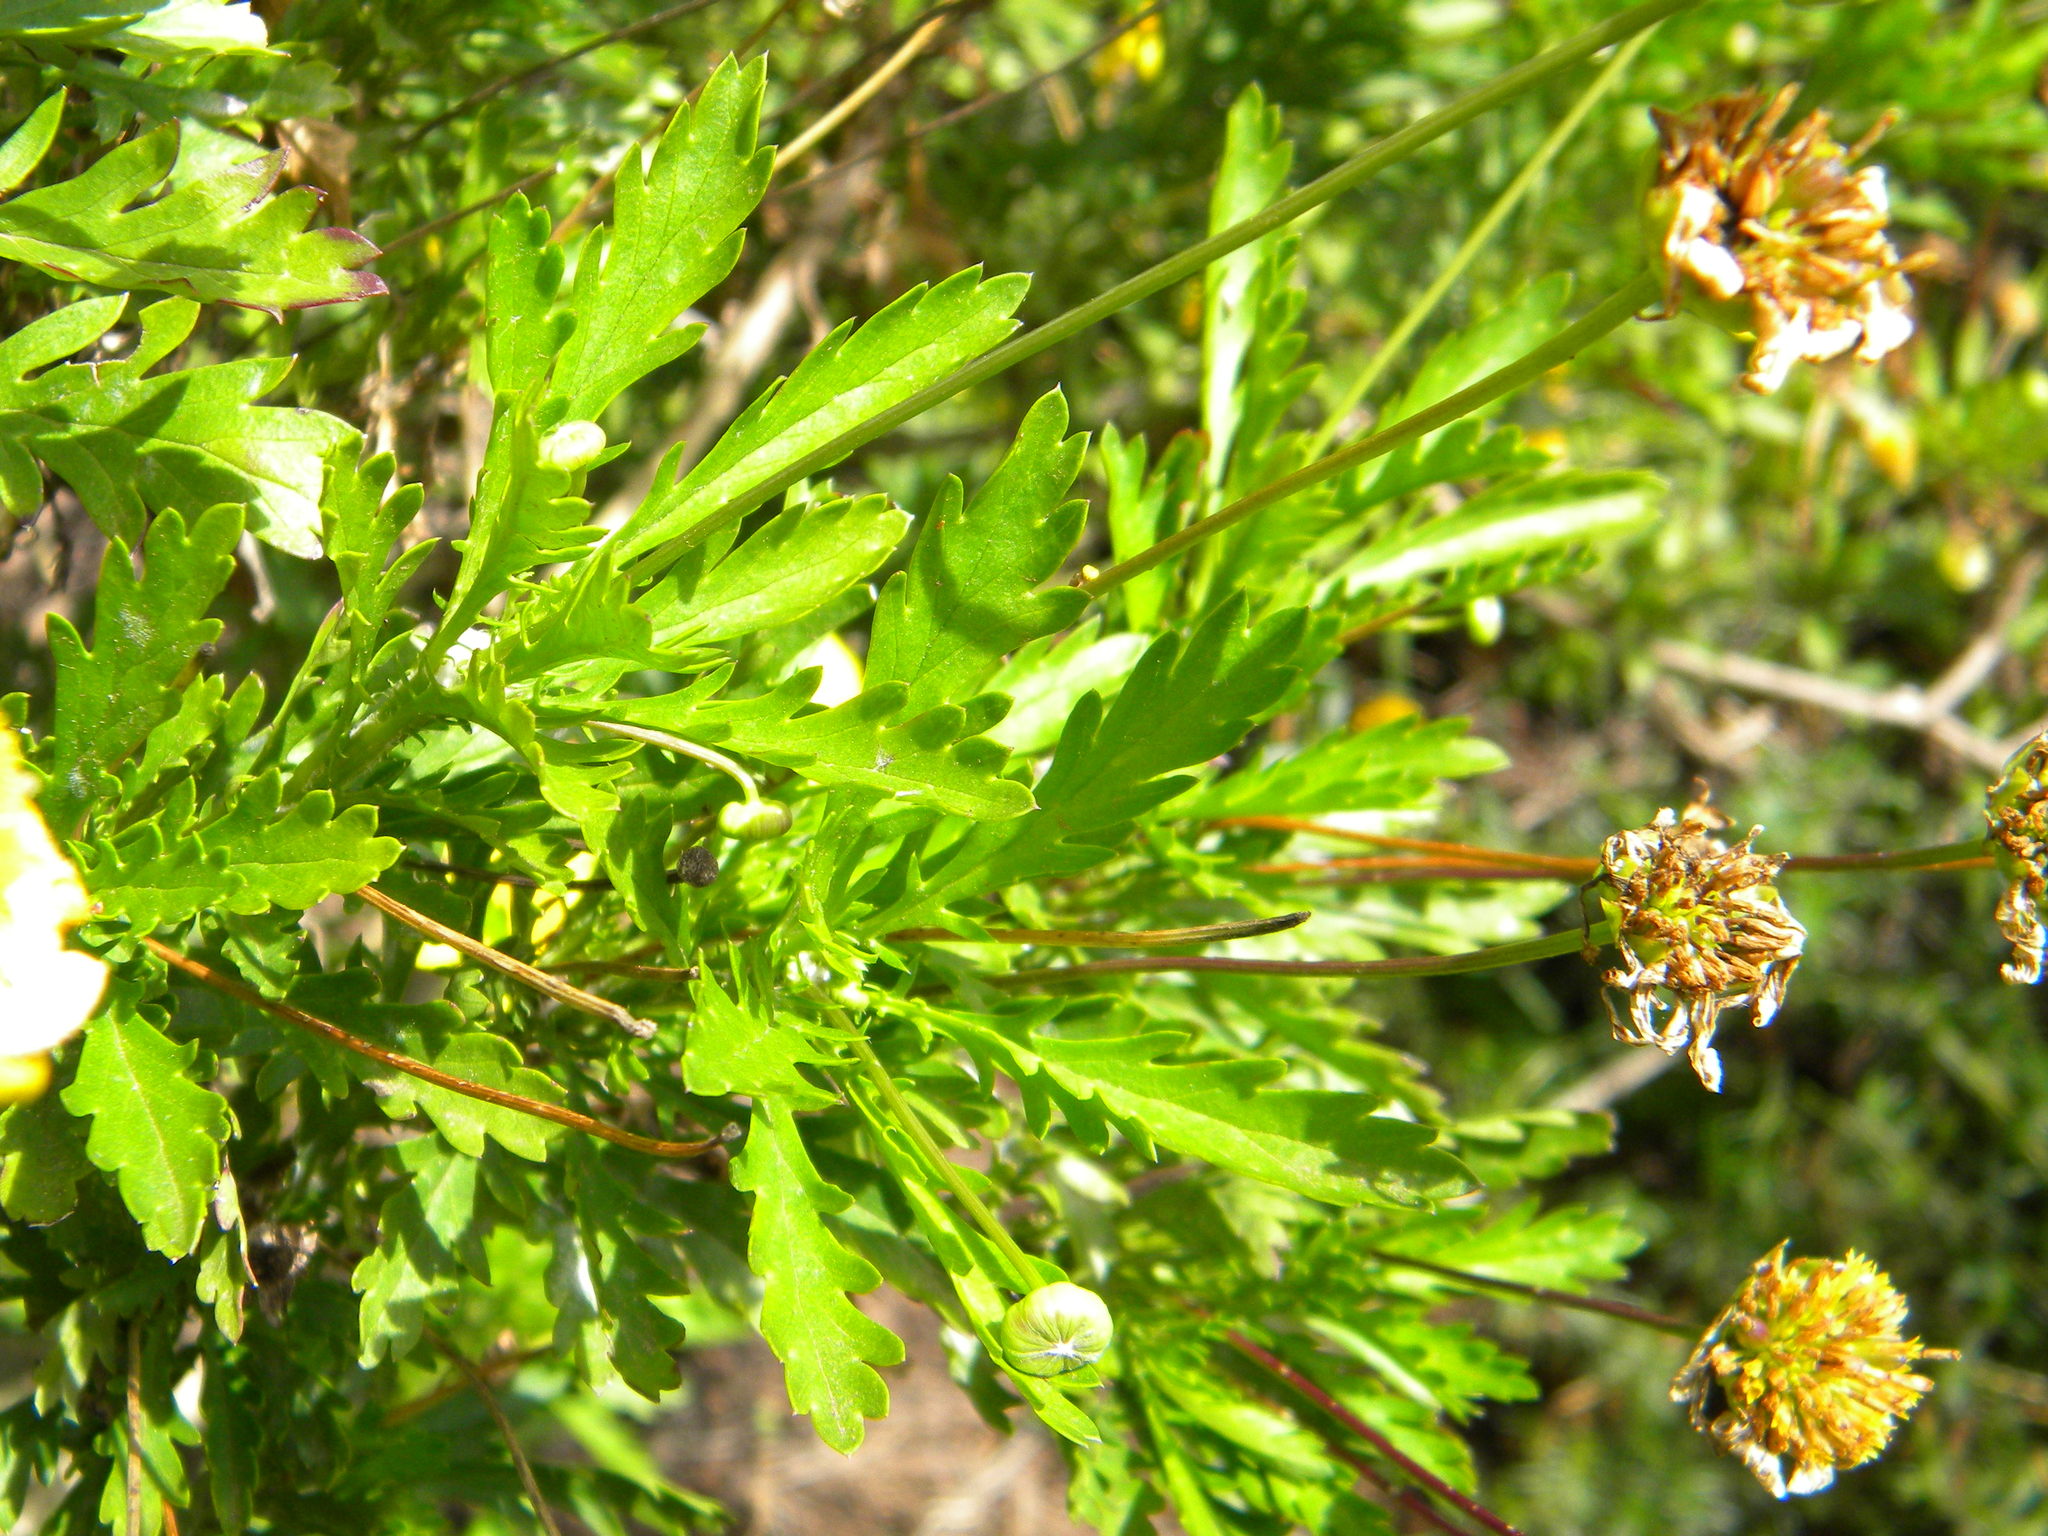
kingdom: Plantae
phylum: Tracheophyta
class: Magnoliopsida
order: Asterales
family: Asteraceae
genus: Euryops
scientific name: Euryops chrysanthemoides
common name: Bull's eye
